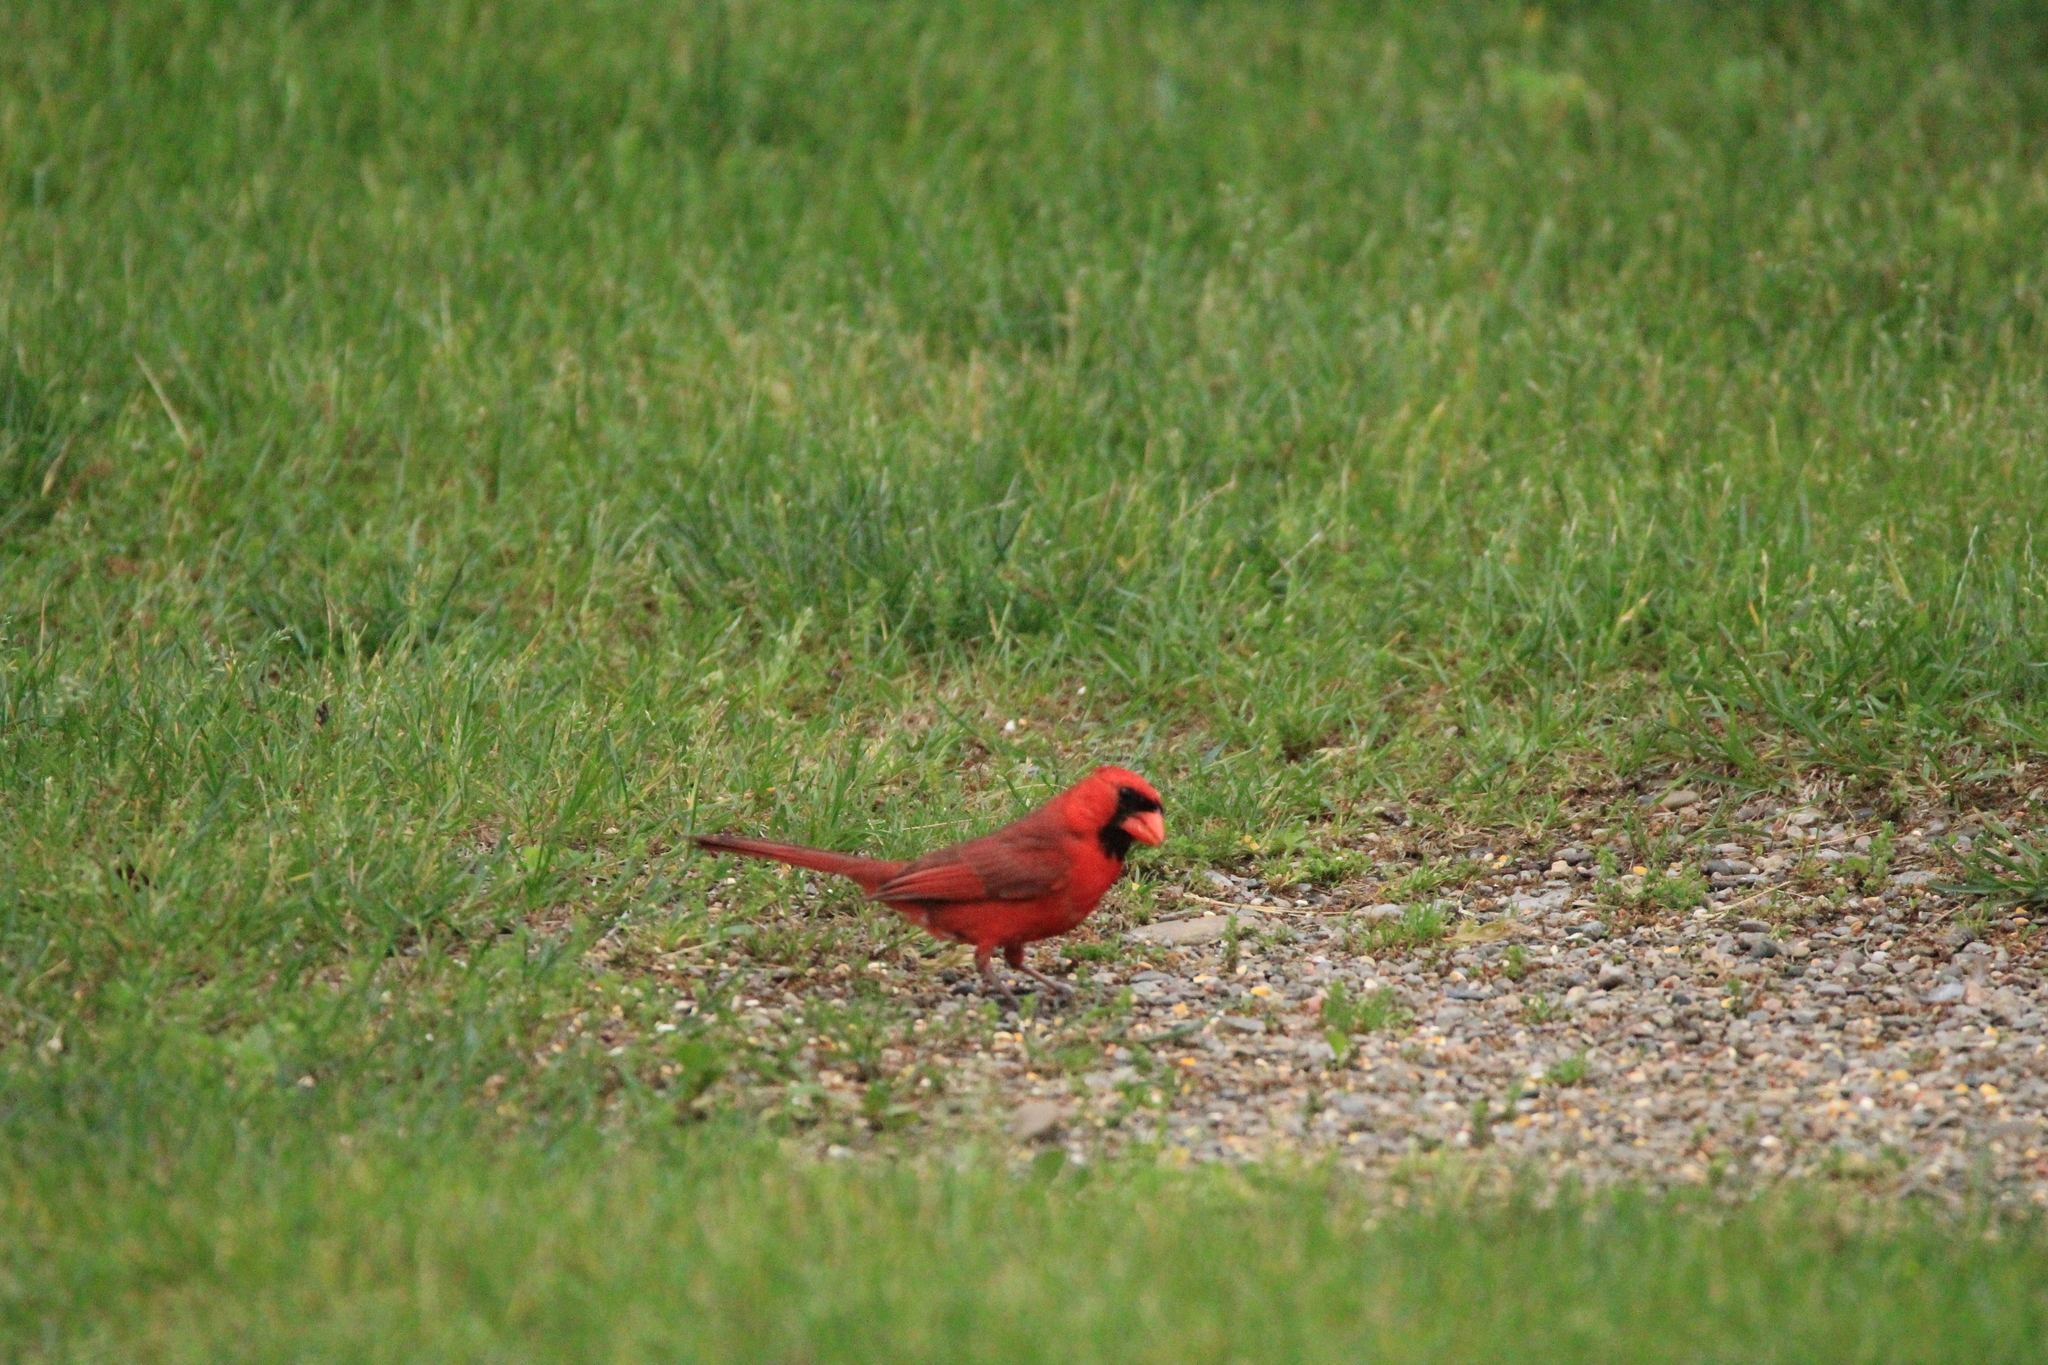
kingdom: Animalia
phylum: Chordata
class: Aves
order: Passeriformes
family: Cardinalidae
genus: Cardinalis
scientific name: Cardinalis cardinalis
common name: Northern cardinal
